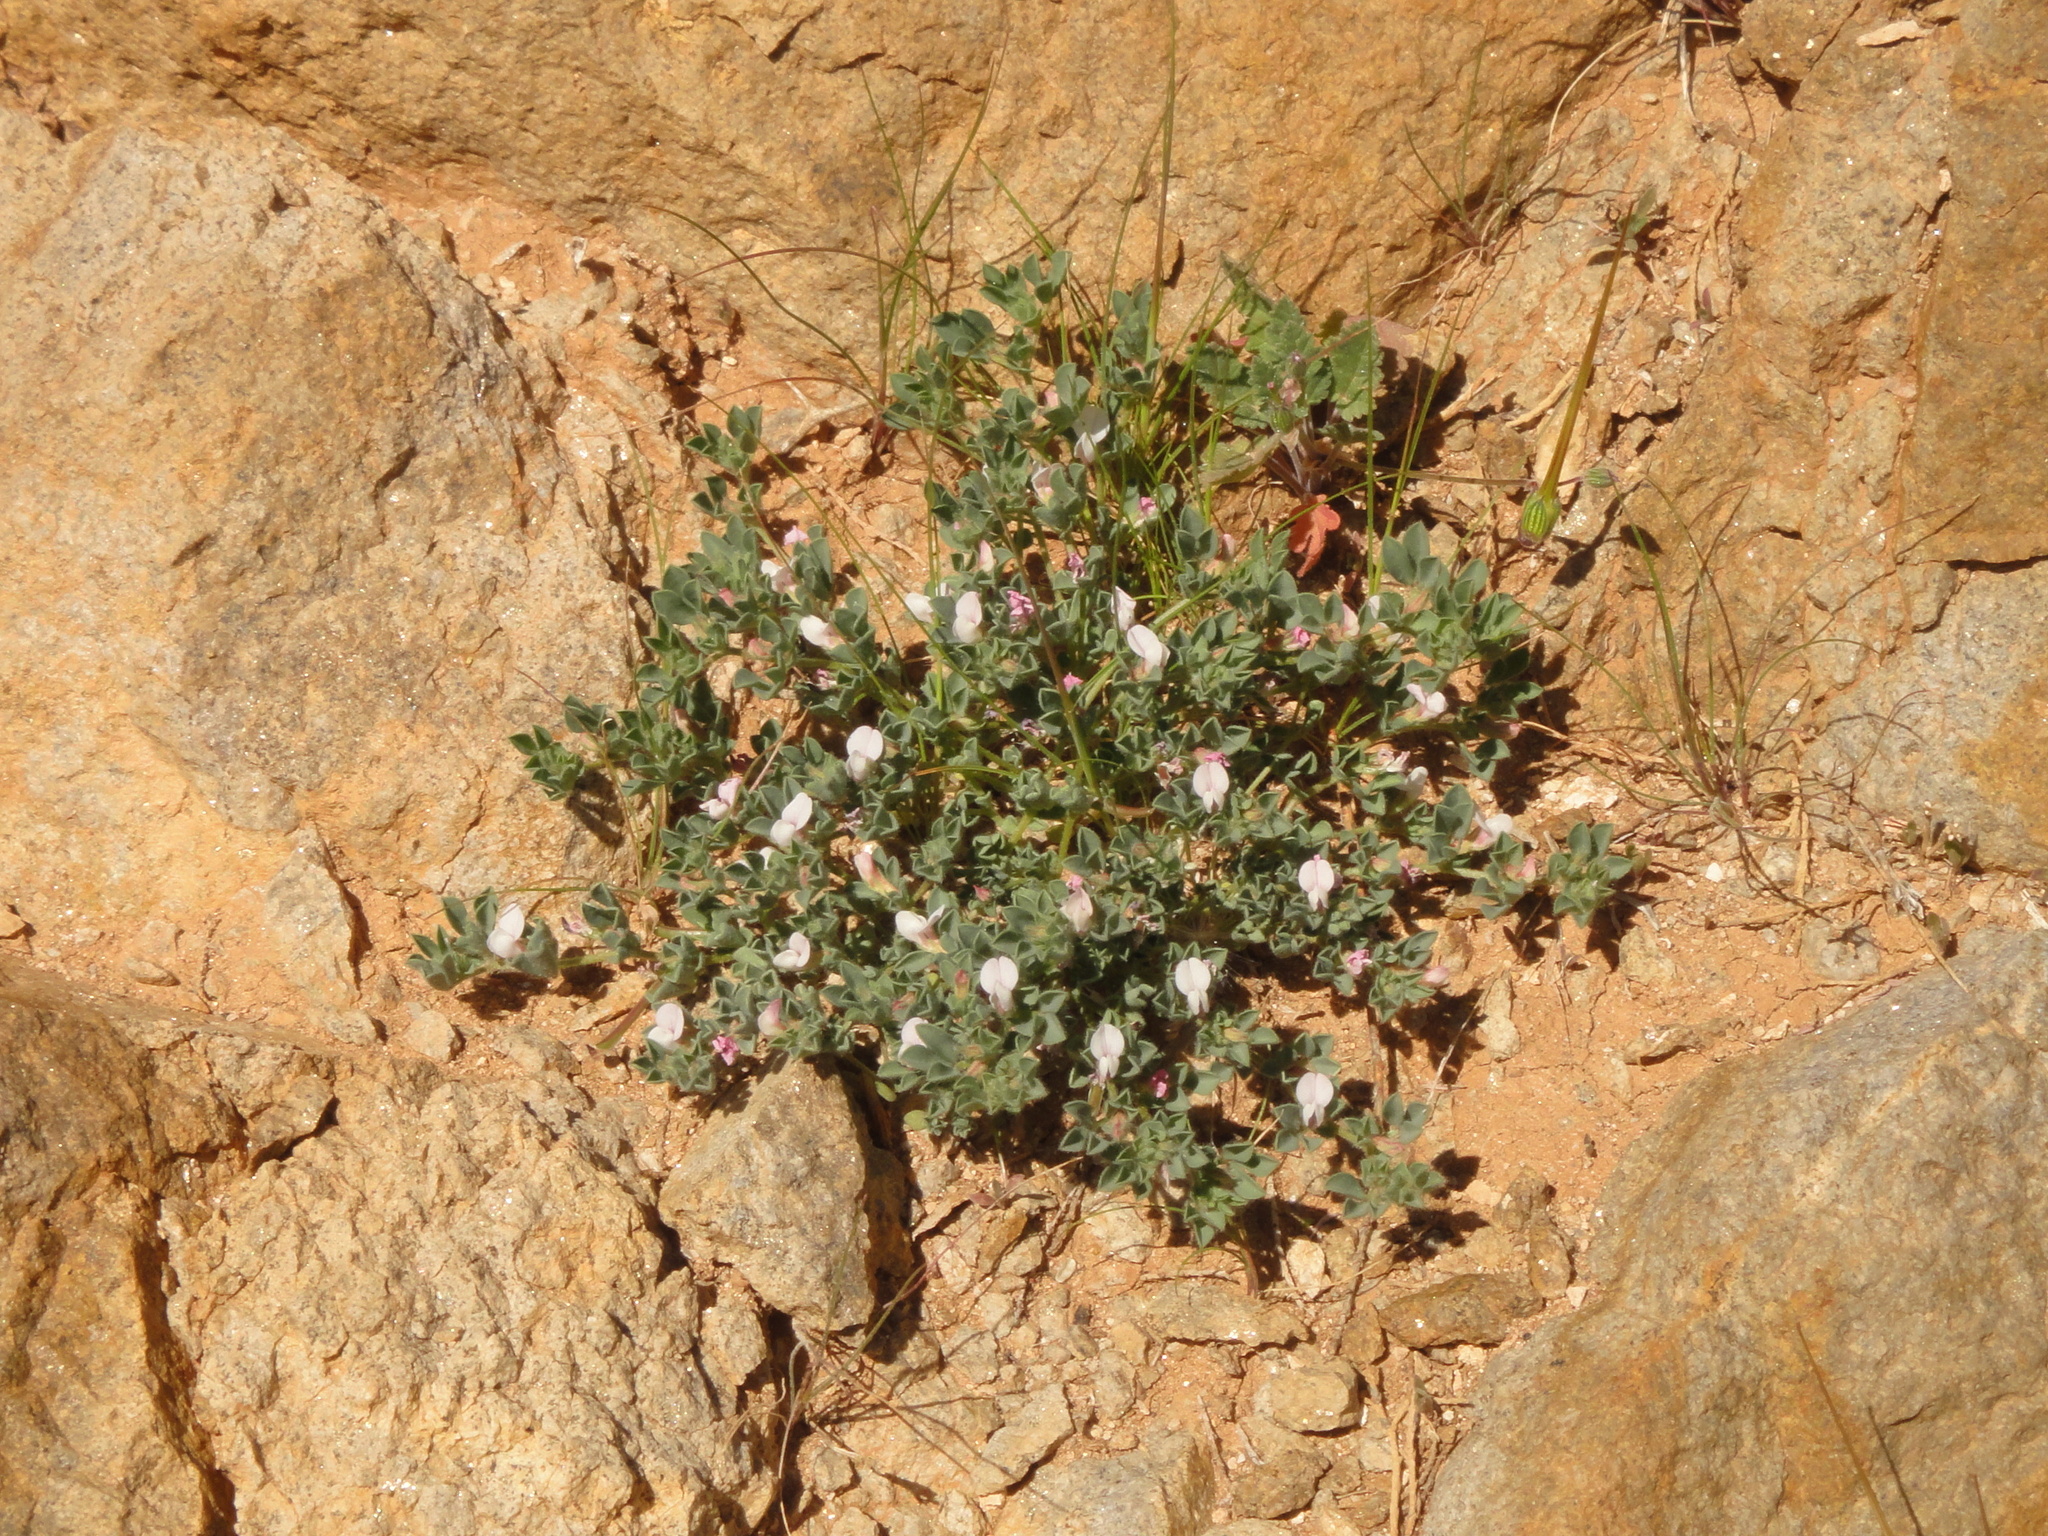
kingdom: Plantae
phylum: Tracheophyta
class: Magnoliopsida
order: Fabales
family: Fabaceae
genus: Lotus
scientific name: Lotus glinoides
